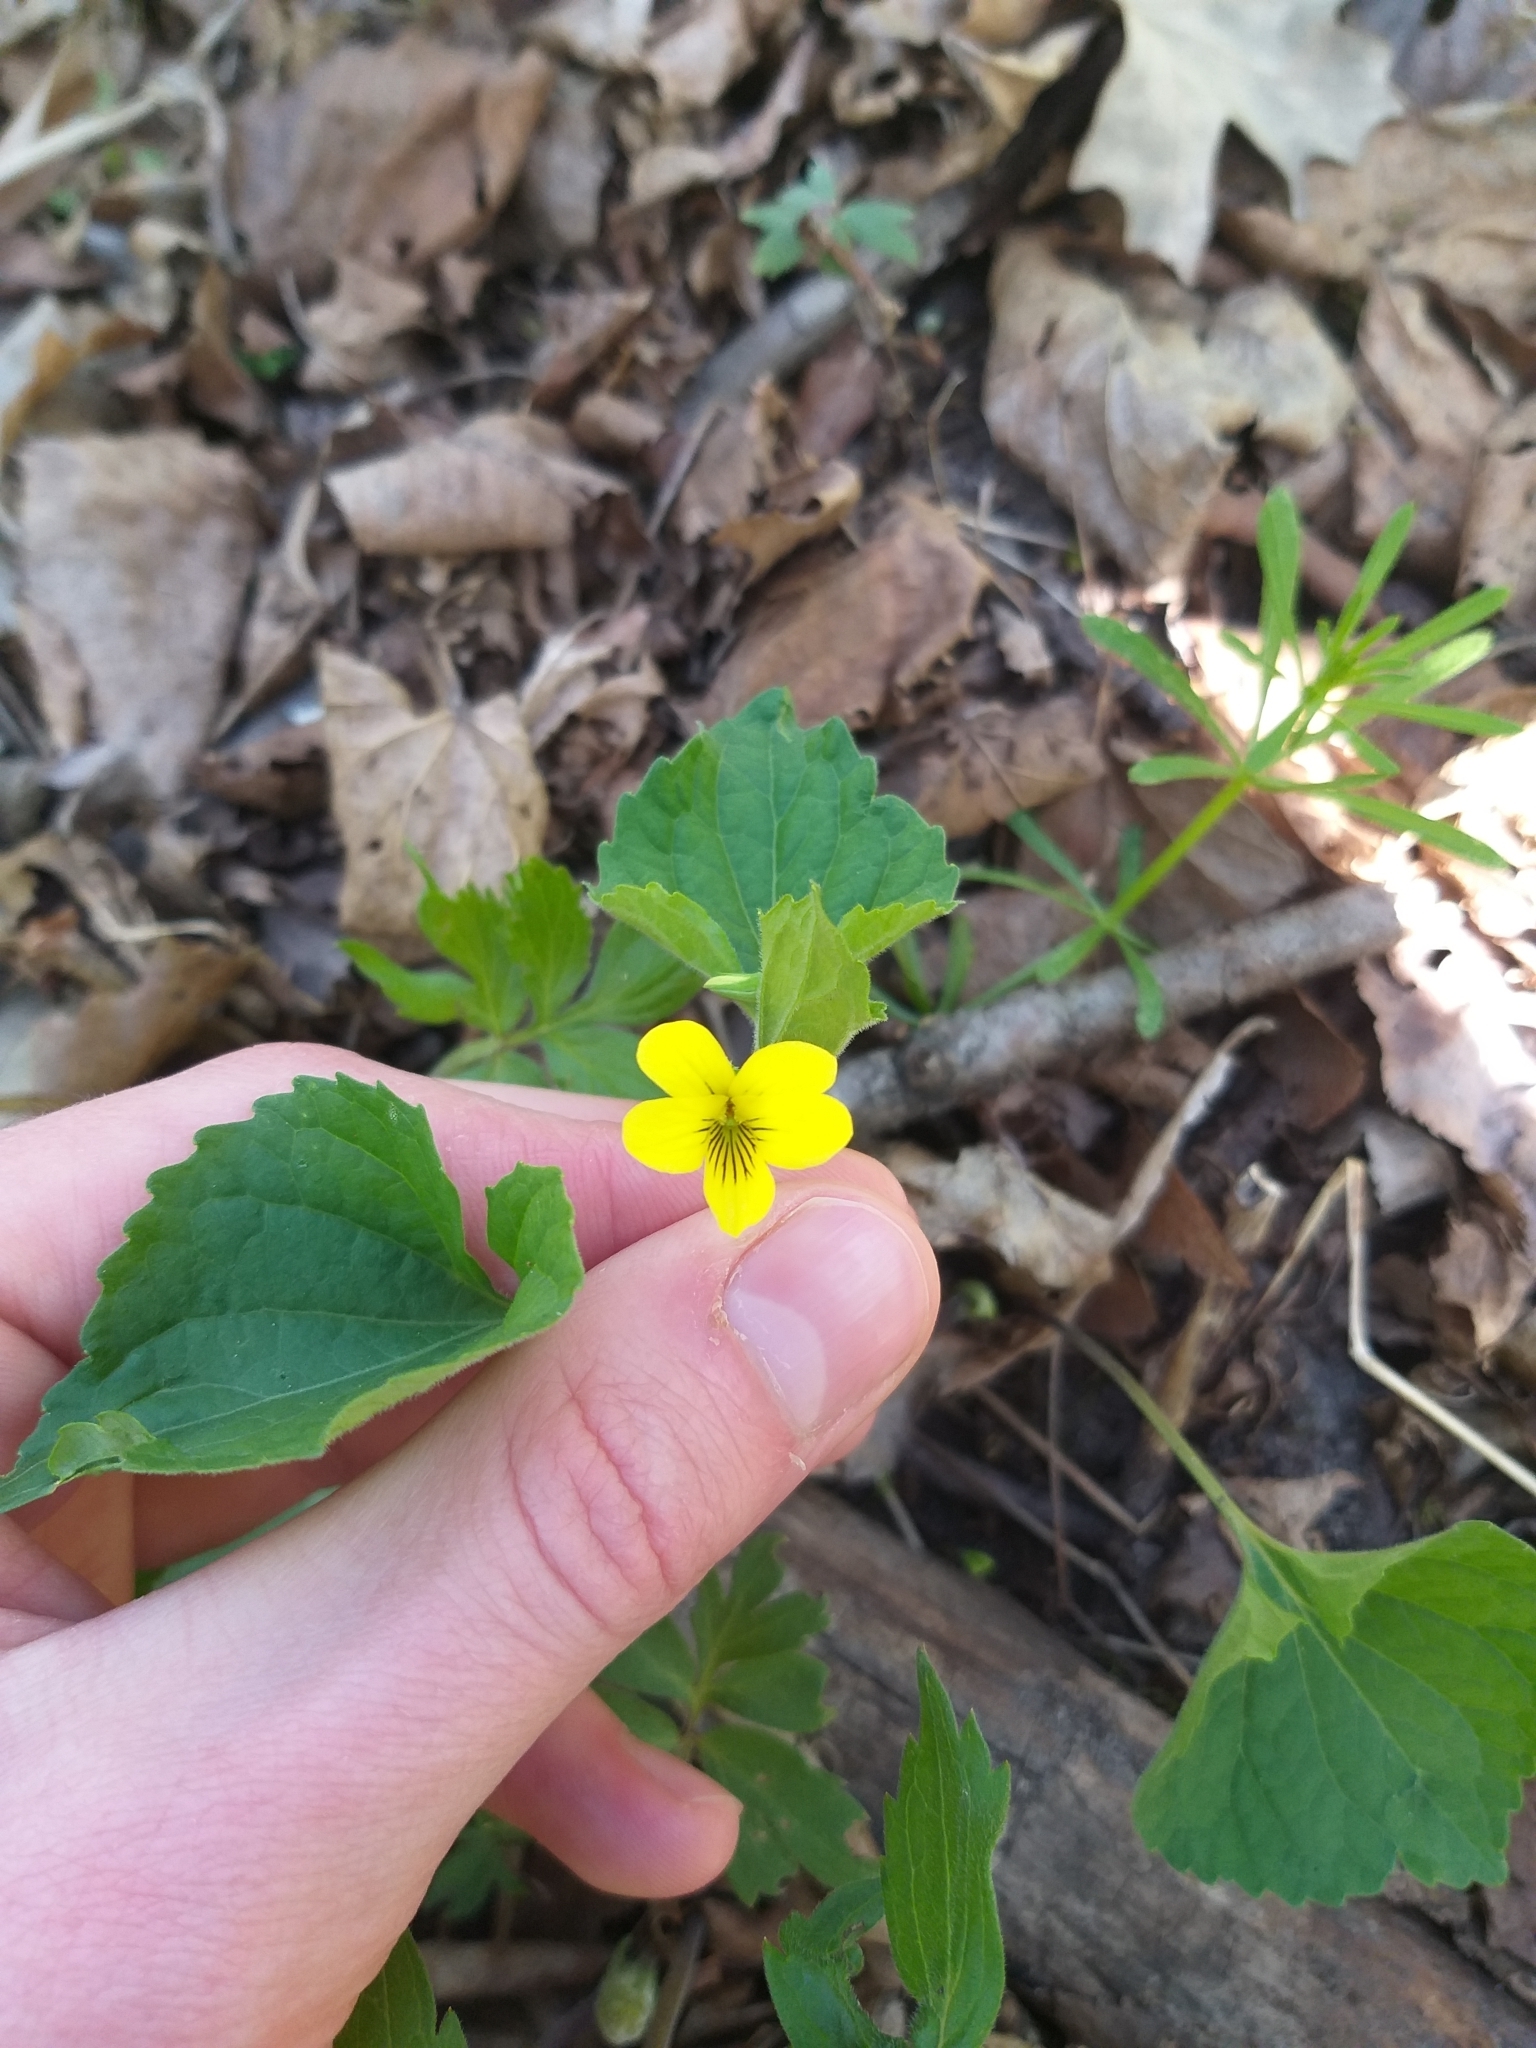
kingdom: Plantae
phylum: Tracheophyta
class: Magnoliopsida
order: Malpighiales
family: Violaceae
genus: Viola
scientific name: Viola eriocarpa
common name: Smooth yellow violet
